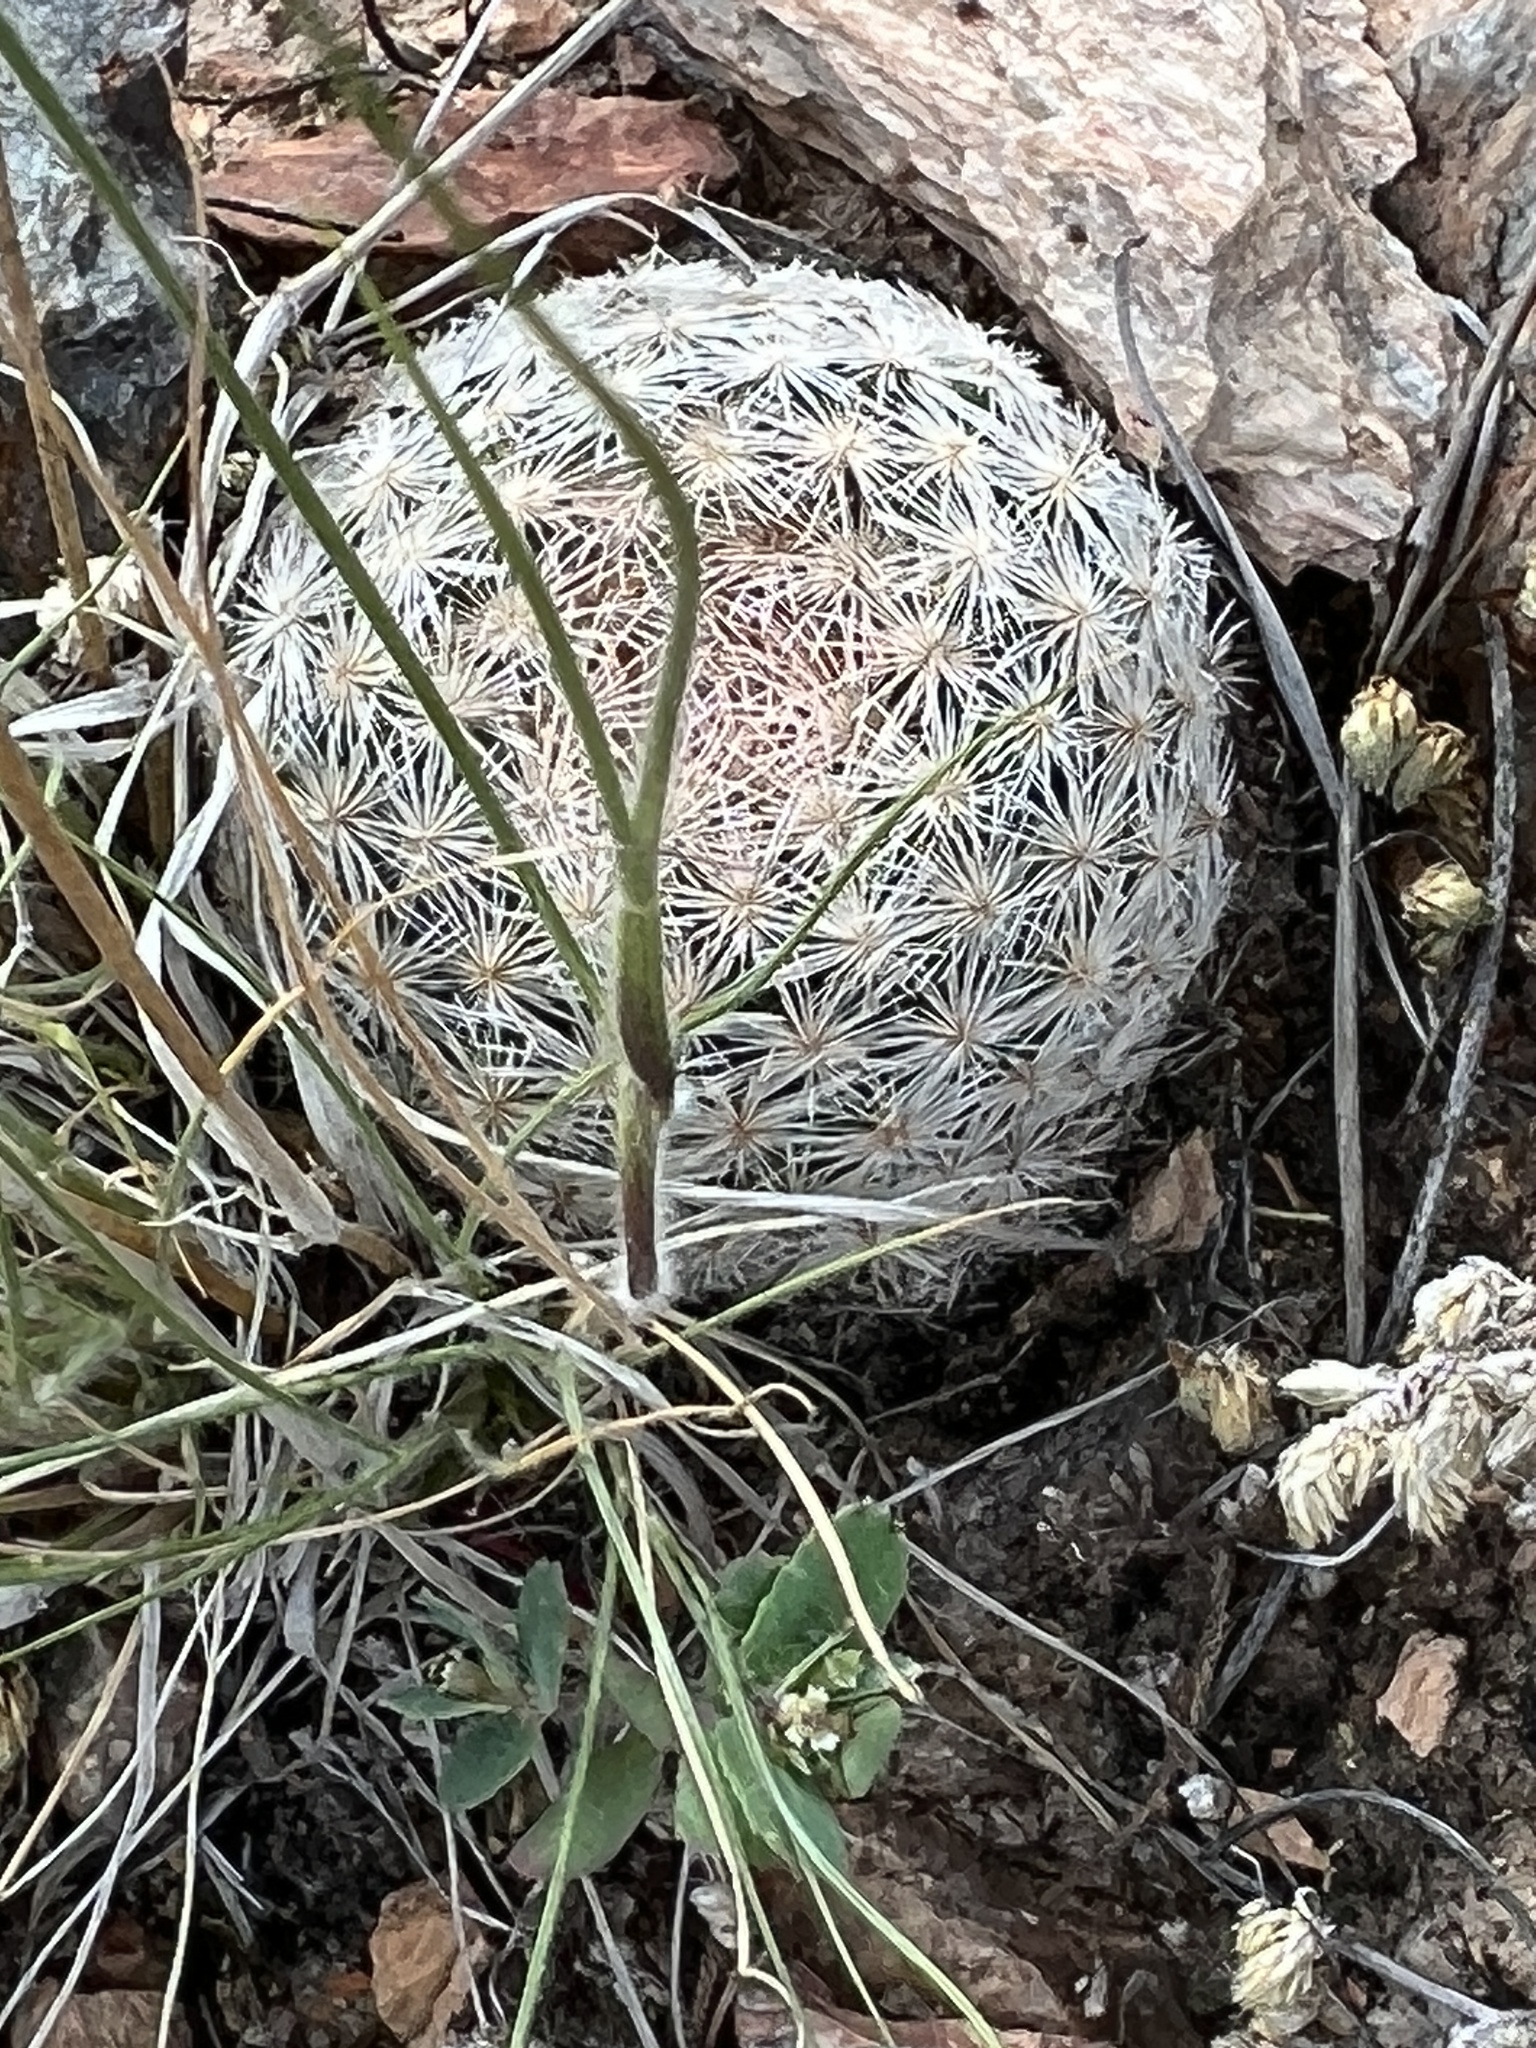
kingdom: Plantae
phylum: Tracheophyta
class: Magnoliopsida
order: Caryophyllales
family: Cactaceae
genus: Mammillaria
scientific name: Mammillaria lasiacantha
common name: Lace-spine nipple cactus
